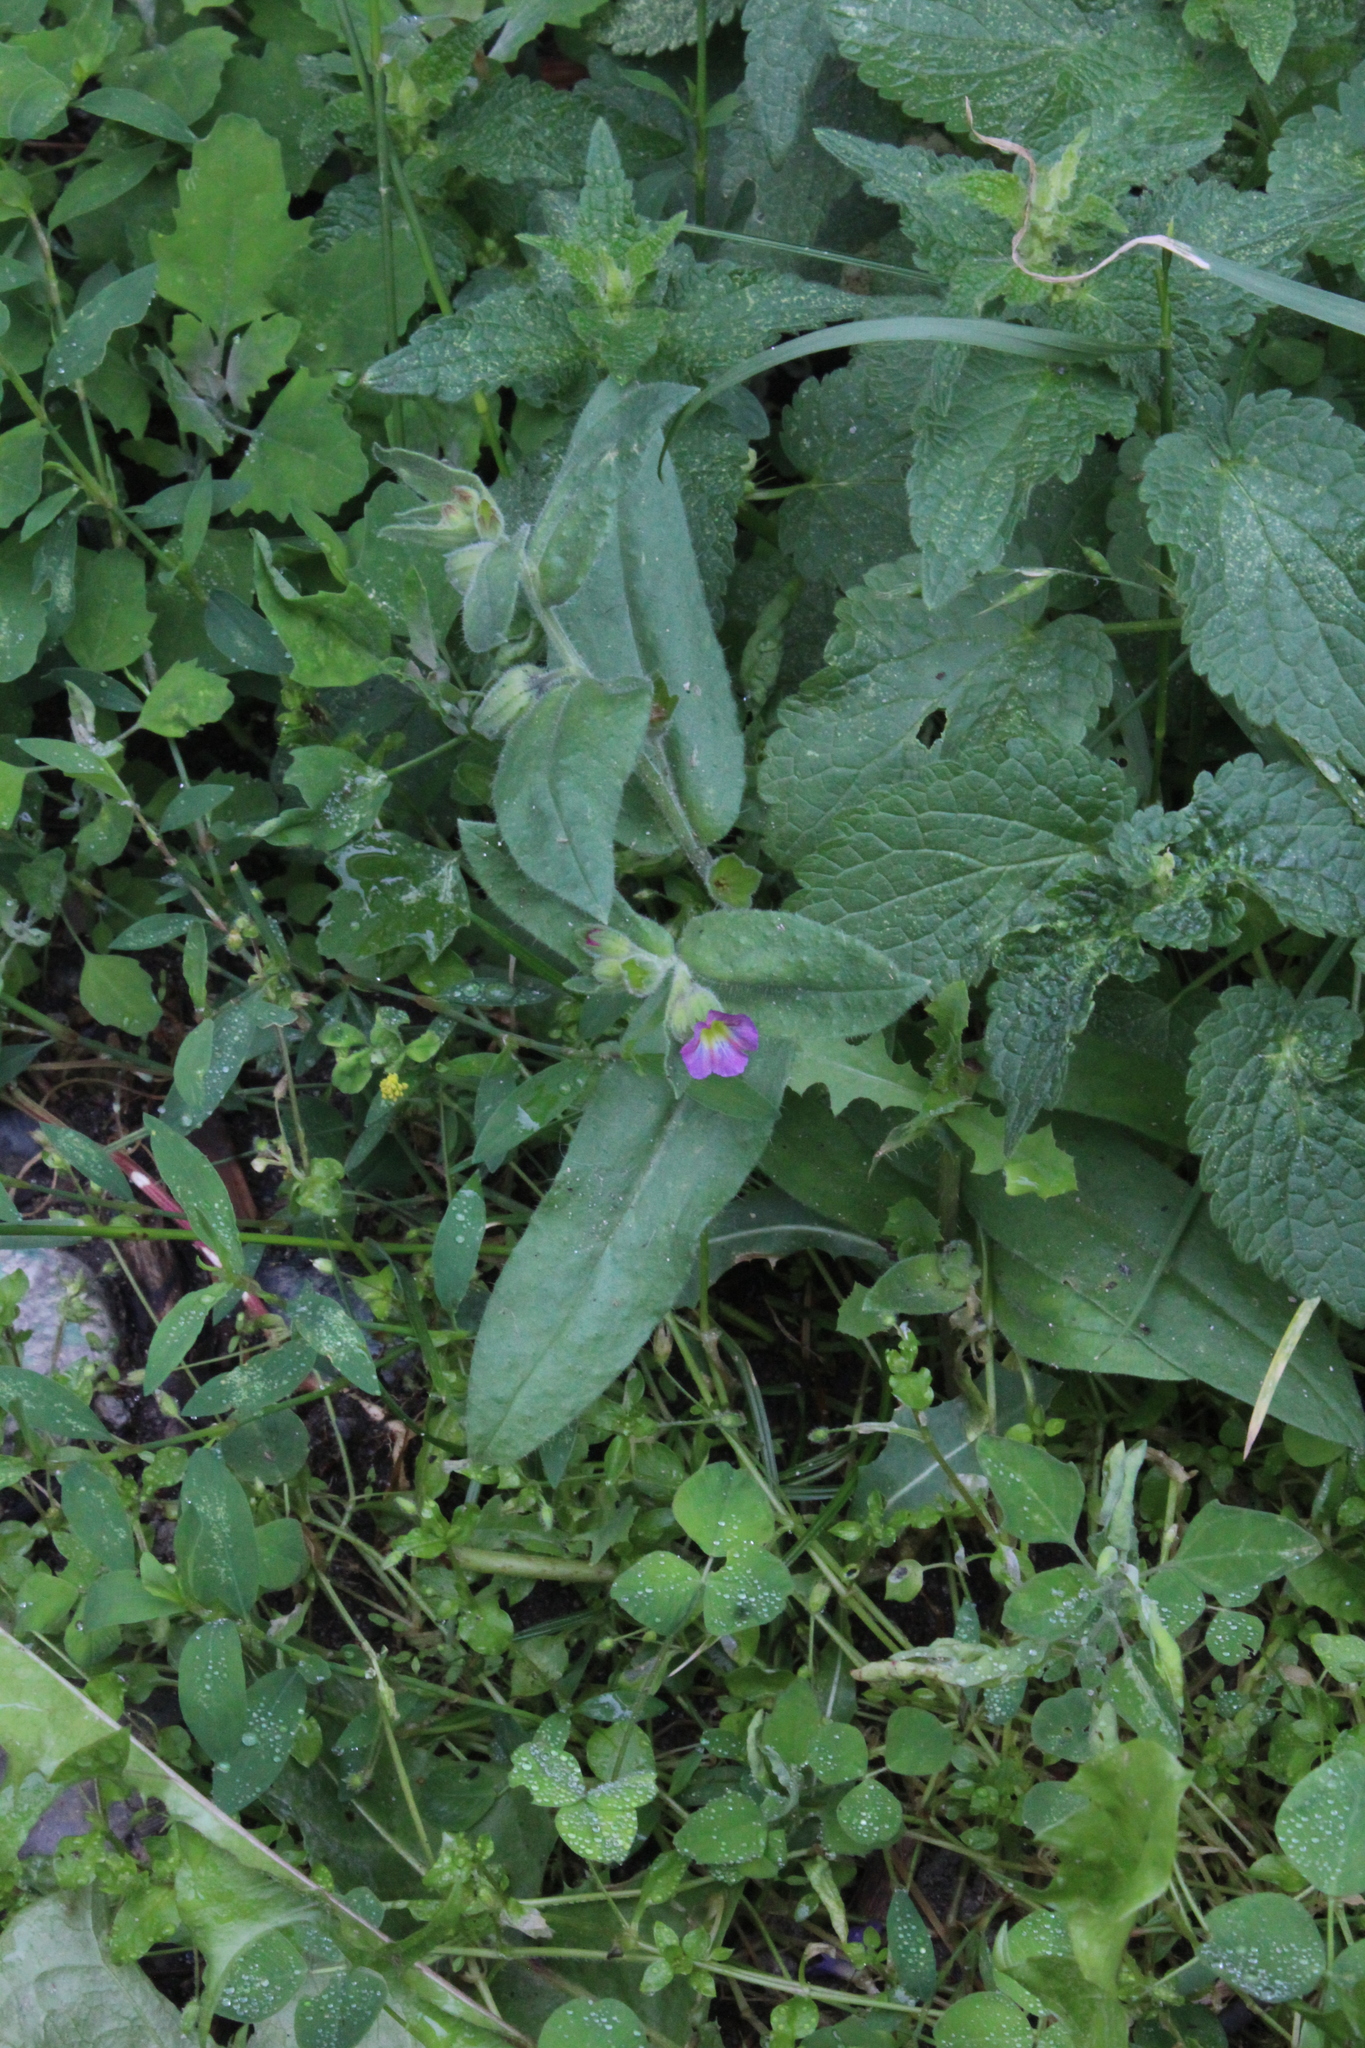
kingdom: Plantae
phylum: Tracheophyta
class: Magnoliopsida
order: Boraginales
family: Boraginaceae
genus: Nonea
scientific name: Nonea versicolor
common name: Varied monkswort
